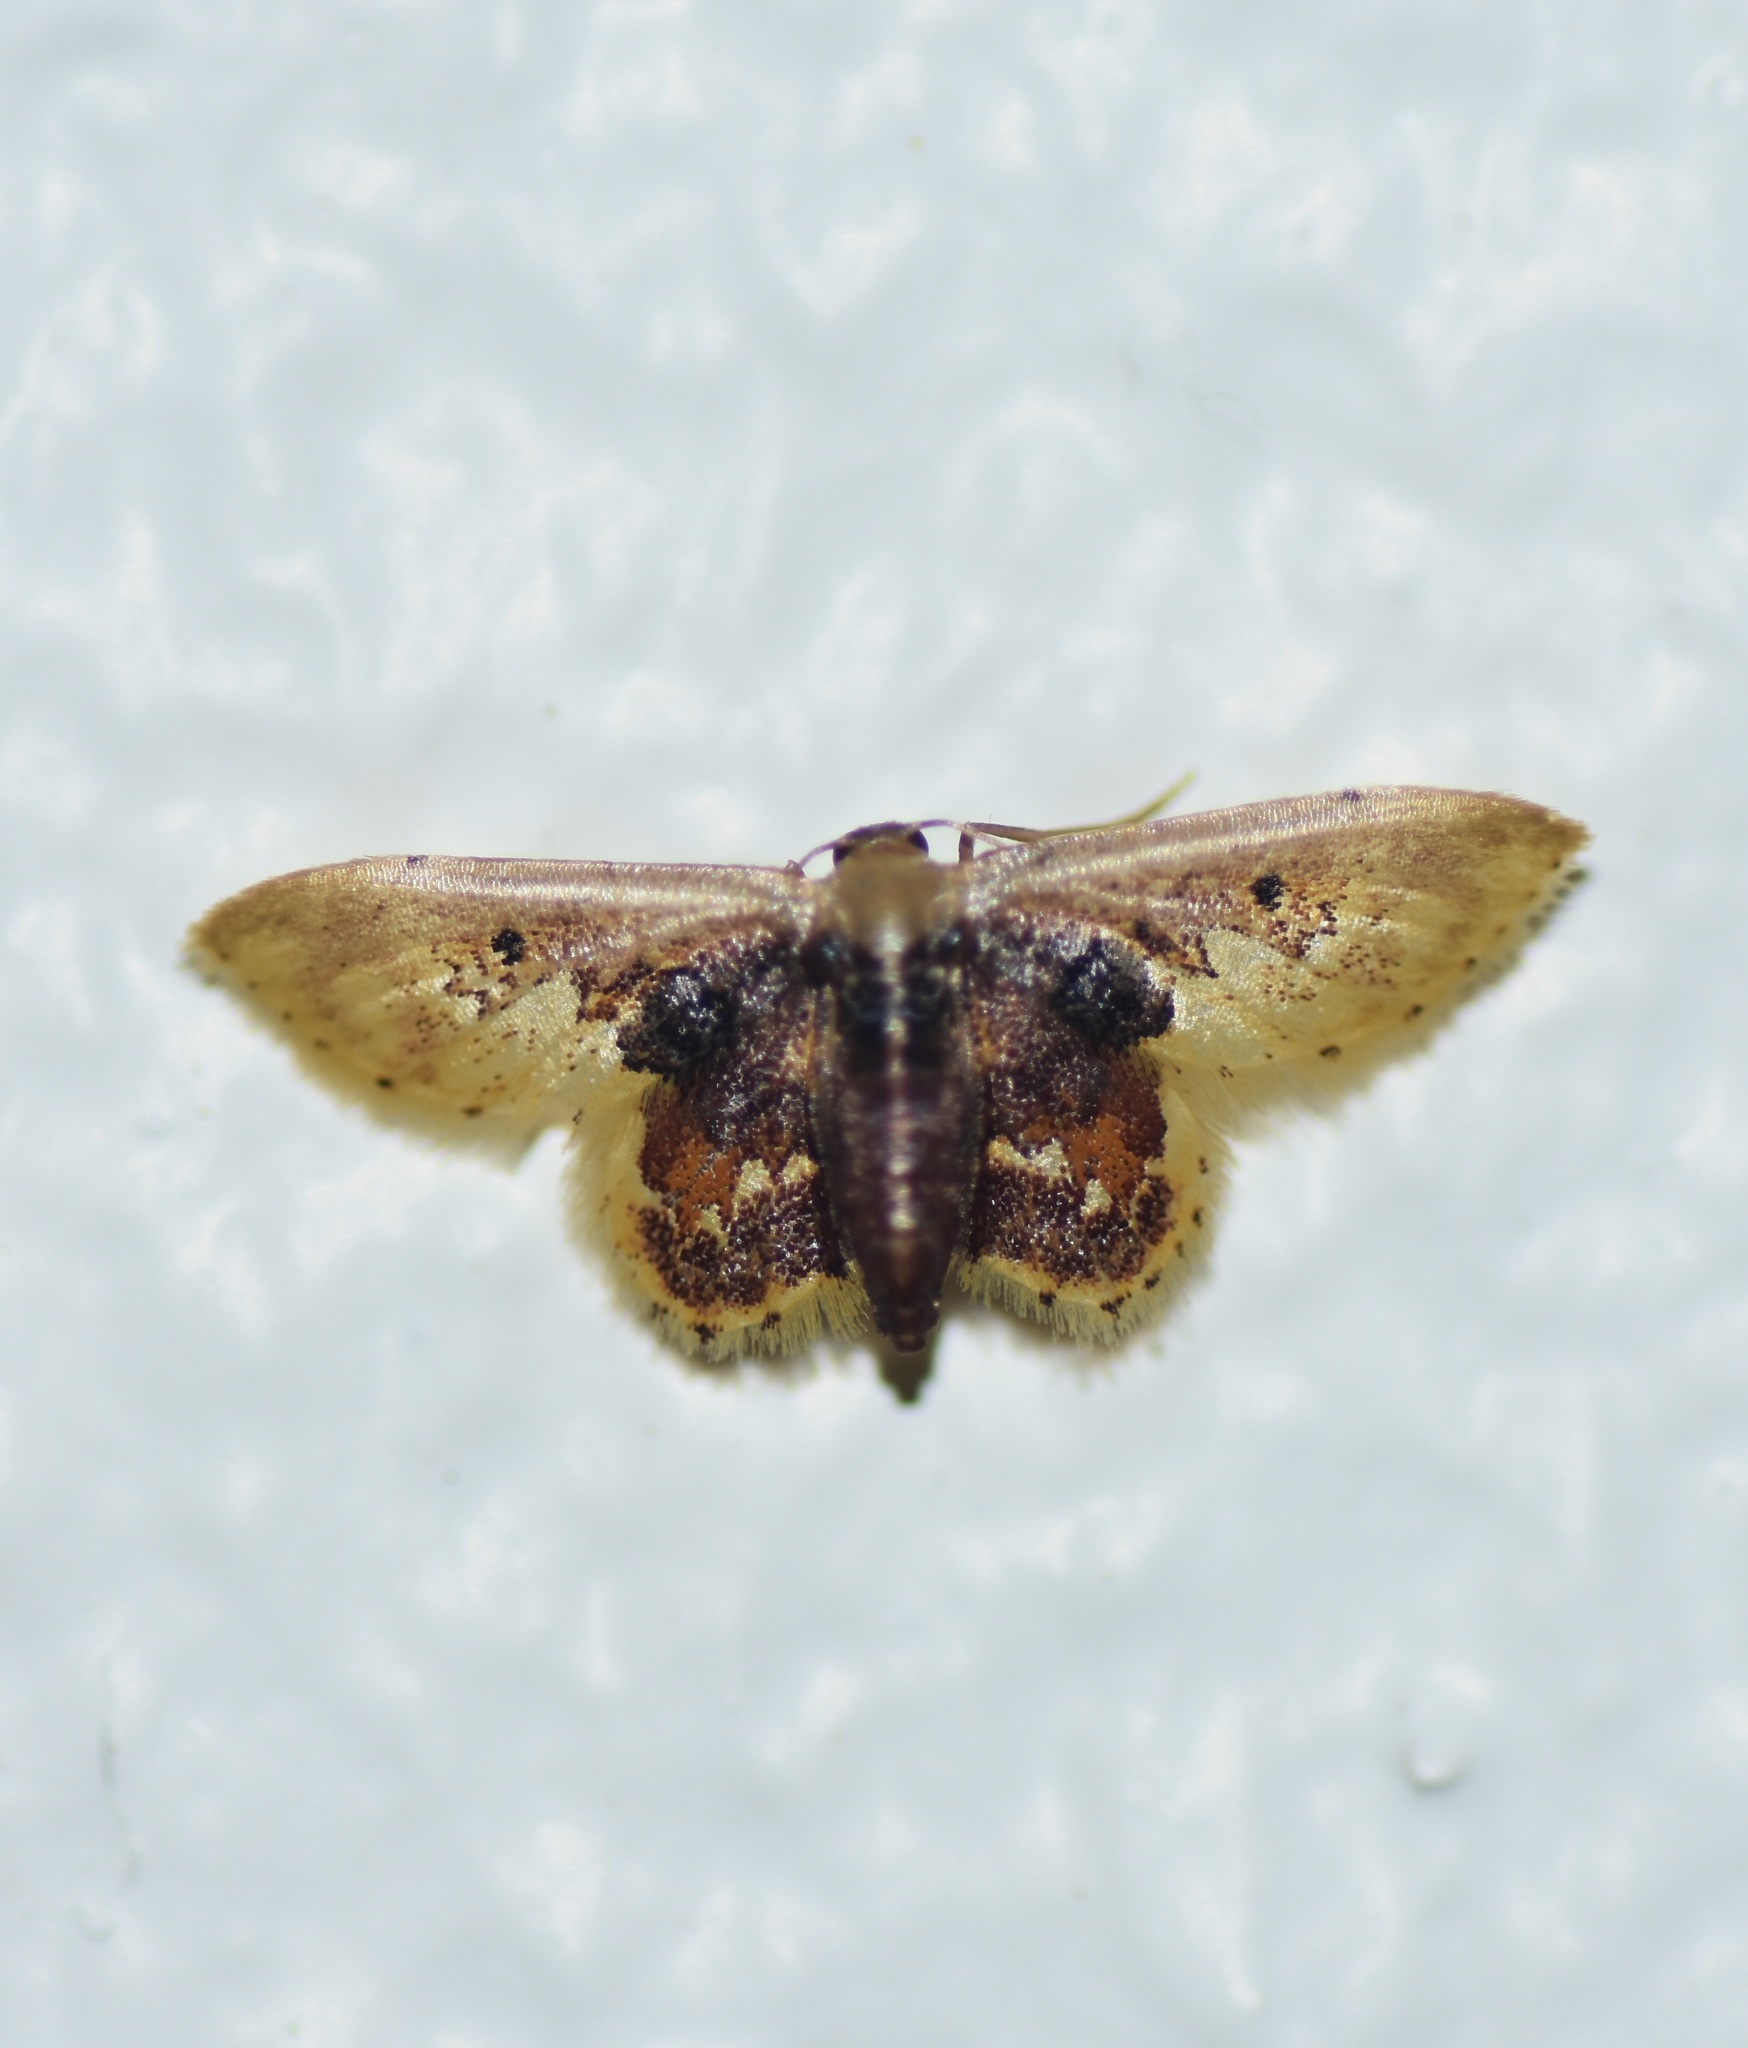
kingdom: Animalia
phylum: Arthropoda
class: Insecta
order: Lepidoptera
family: Geometridae
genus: Idaea
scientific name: Idaea helleria
